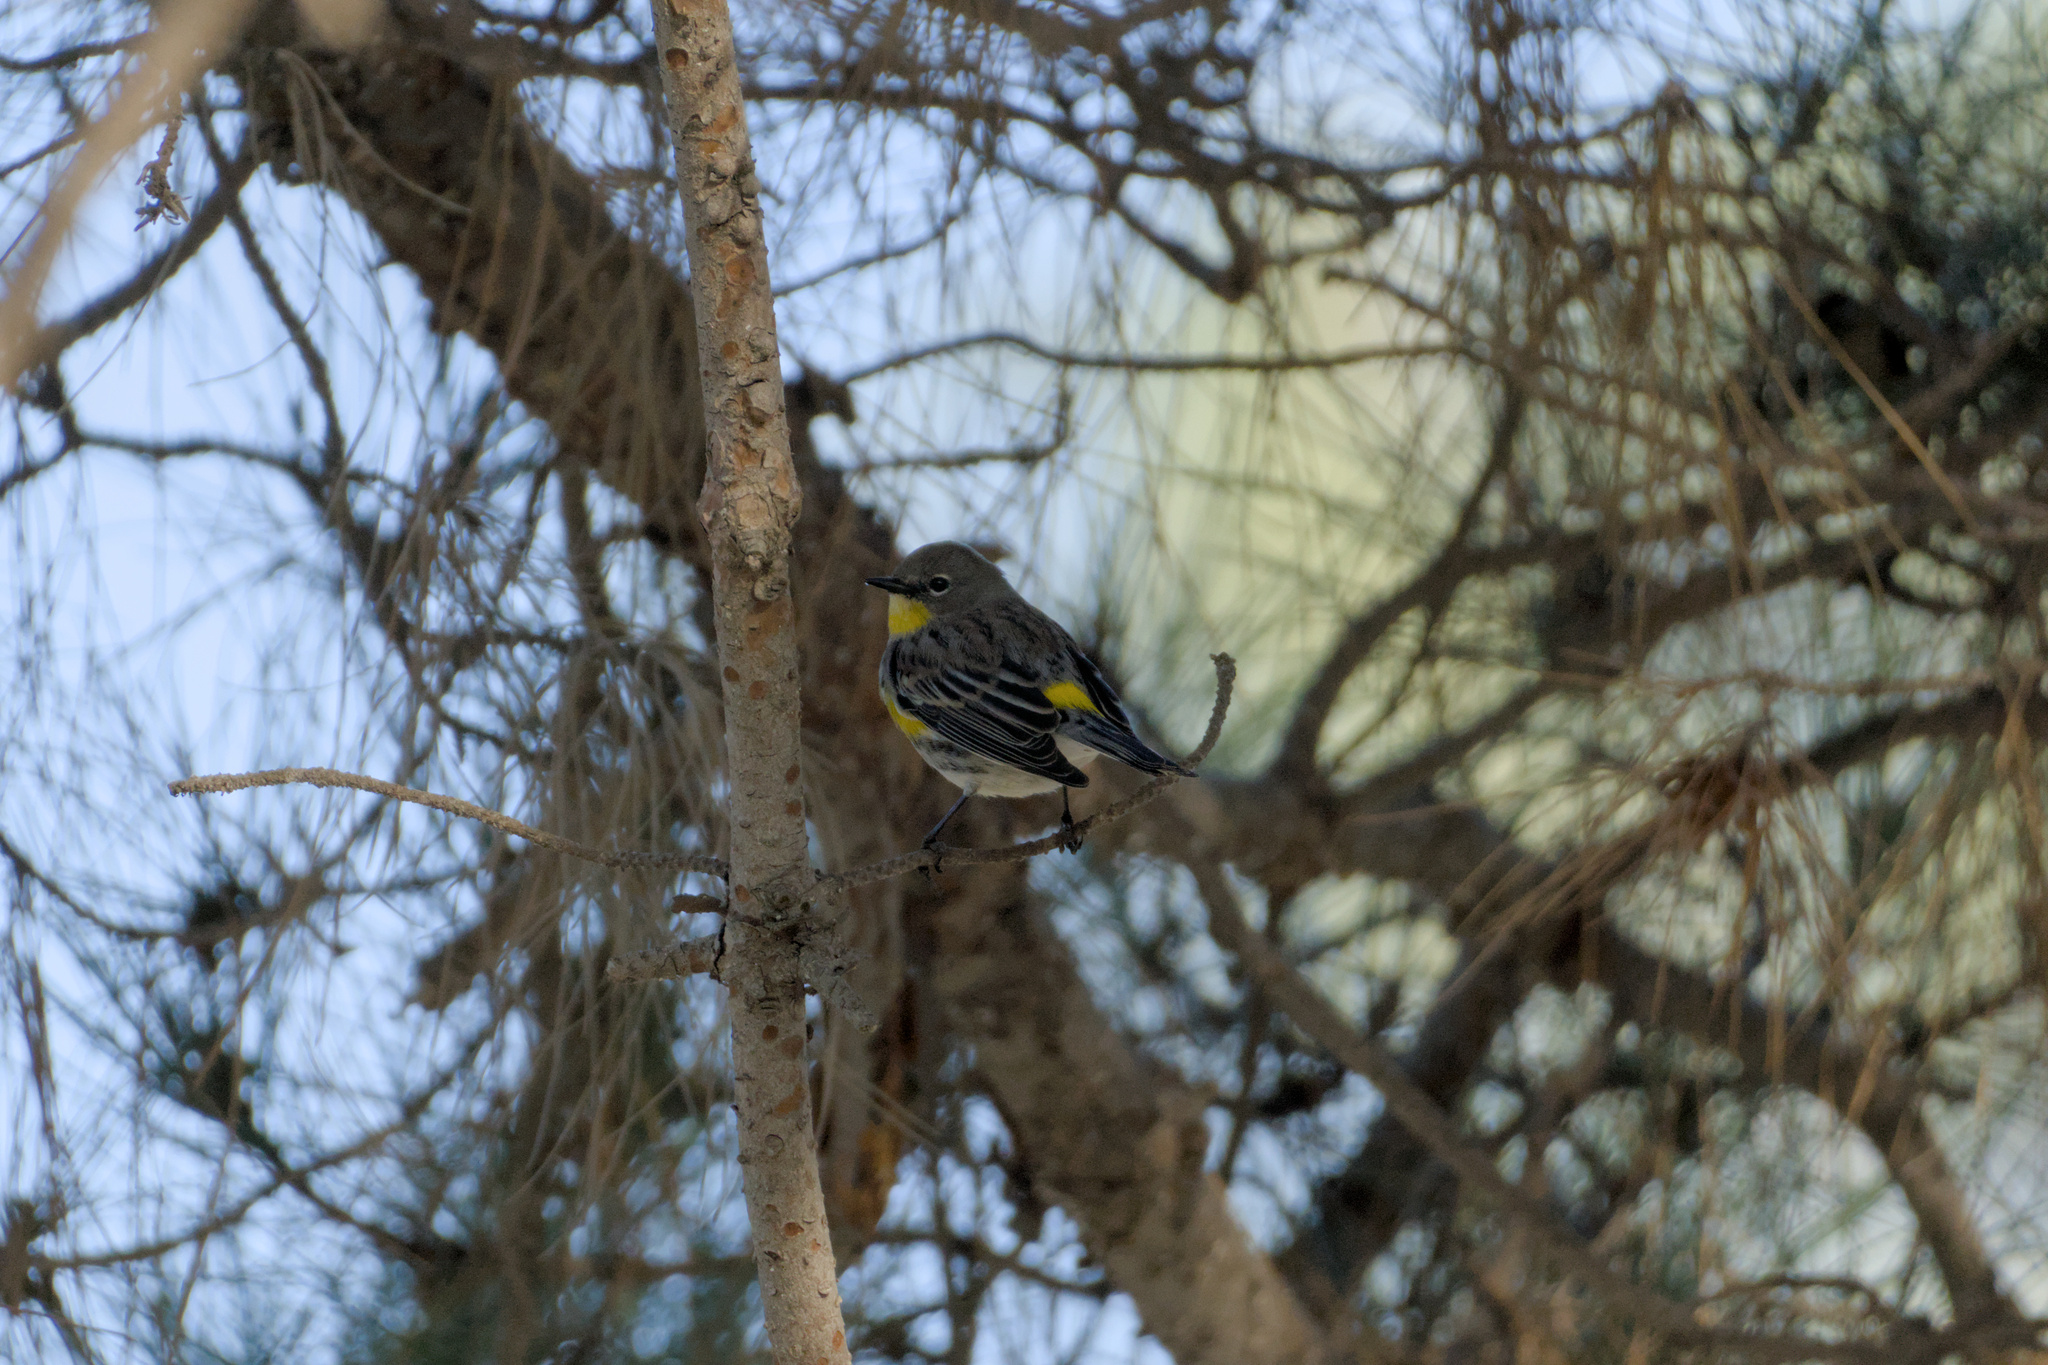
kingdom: Animalia
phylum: Chordata
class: Aves
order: Passeriformes
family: Parulidae
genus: Setophaga
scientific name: Setophaga auduboni
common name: Audubon's warbler
